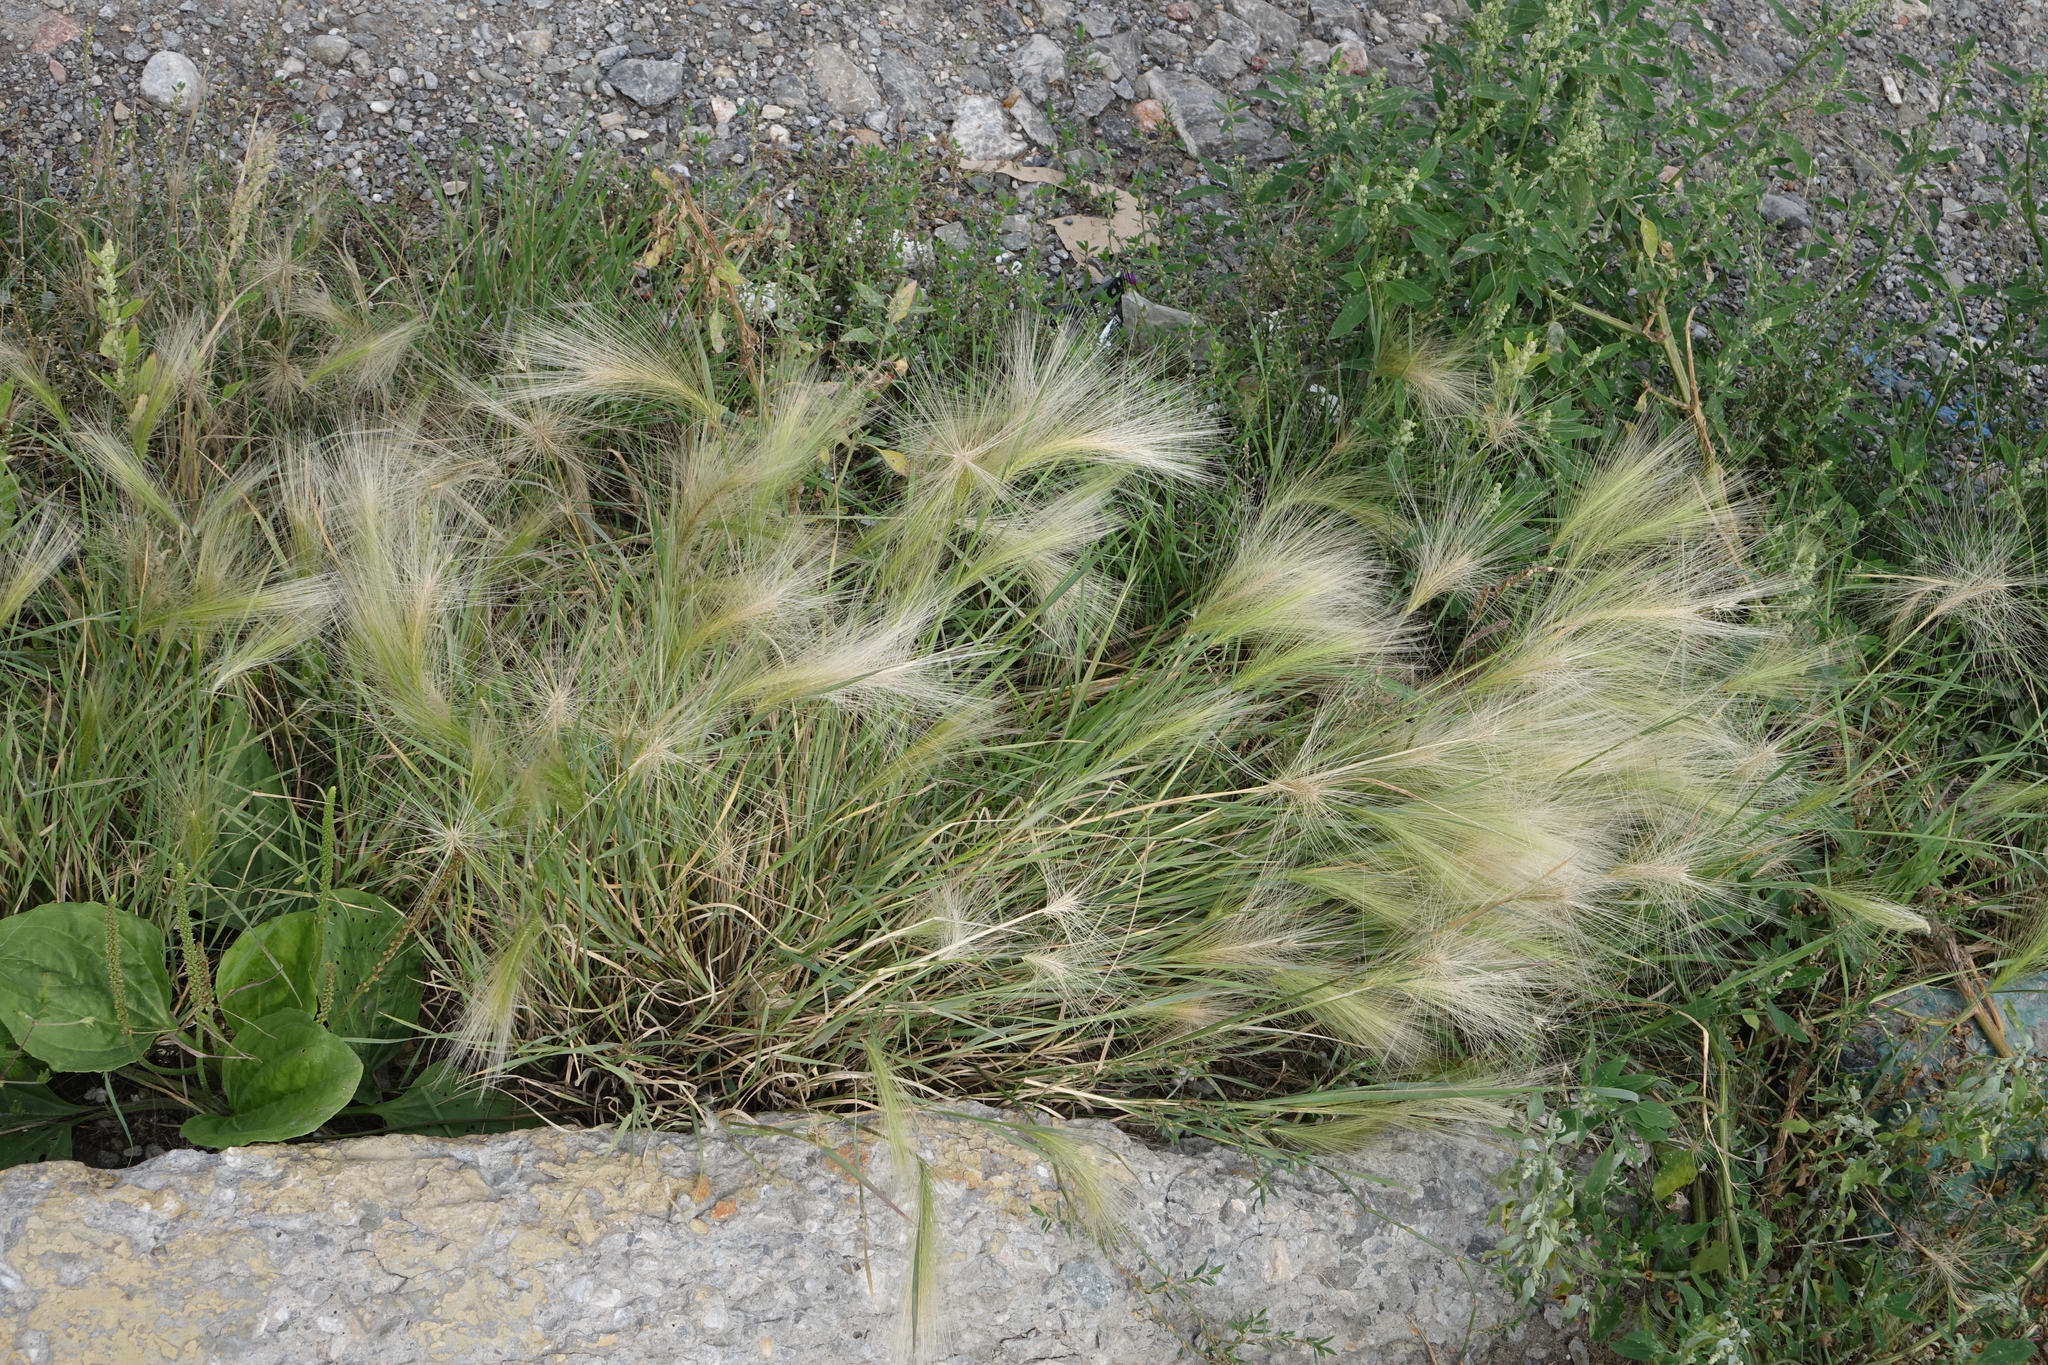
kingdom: Plantae
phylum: Tracheophyta
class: Liliopsida
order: Poales
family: Poaceae
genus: Hordeum
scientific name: Hordeum jubatum
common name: Foxtail barley
